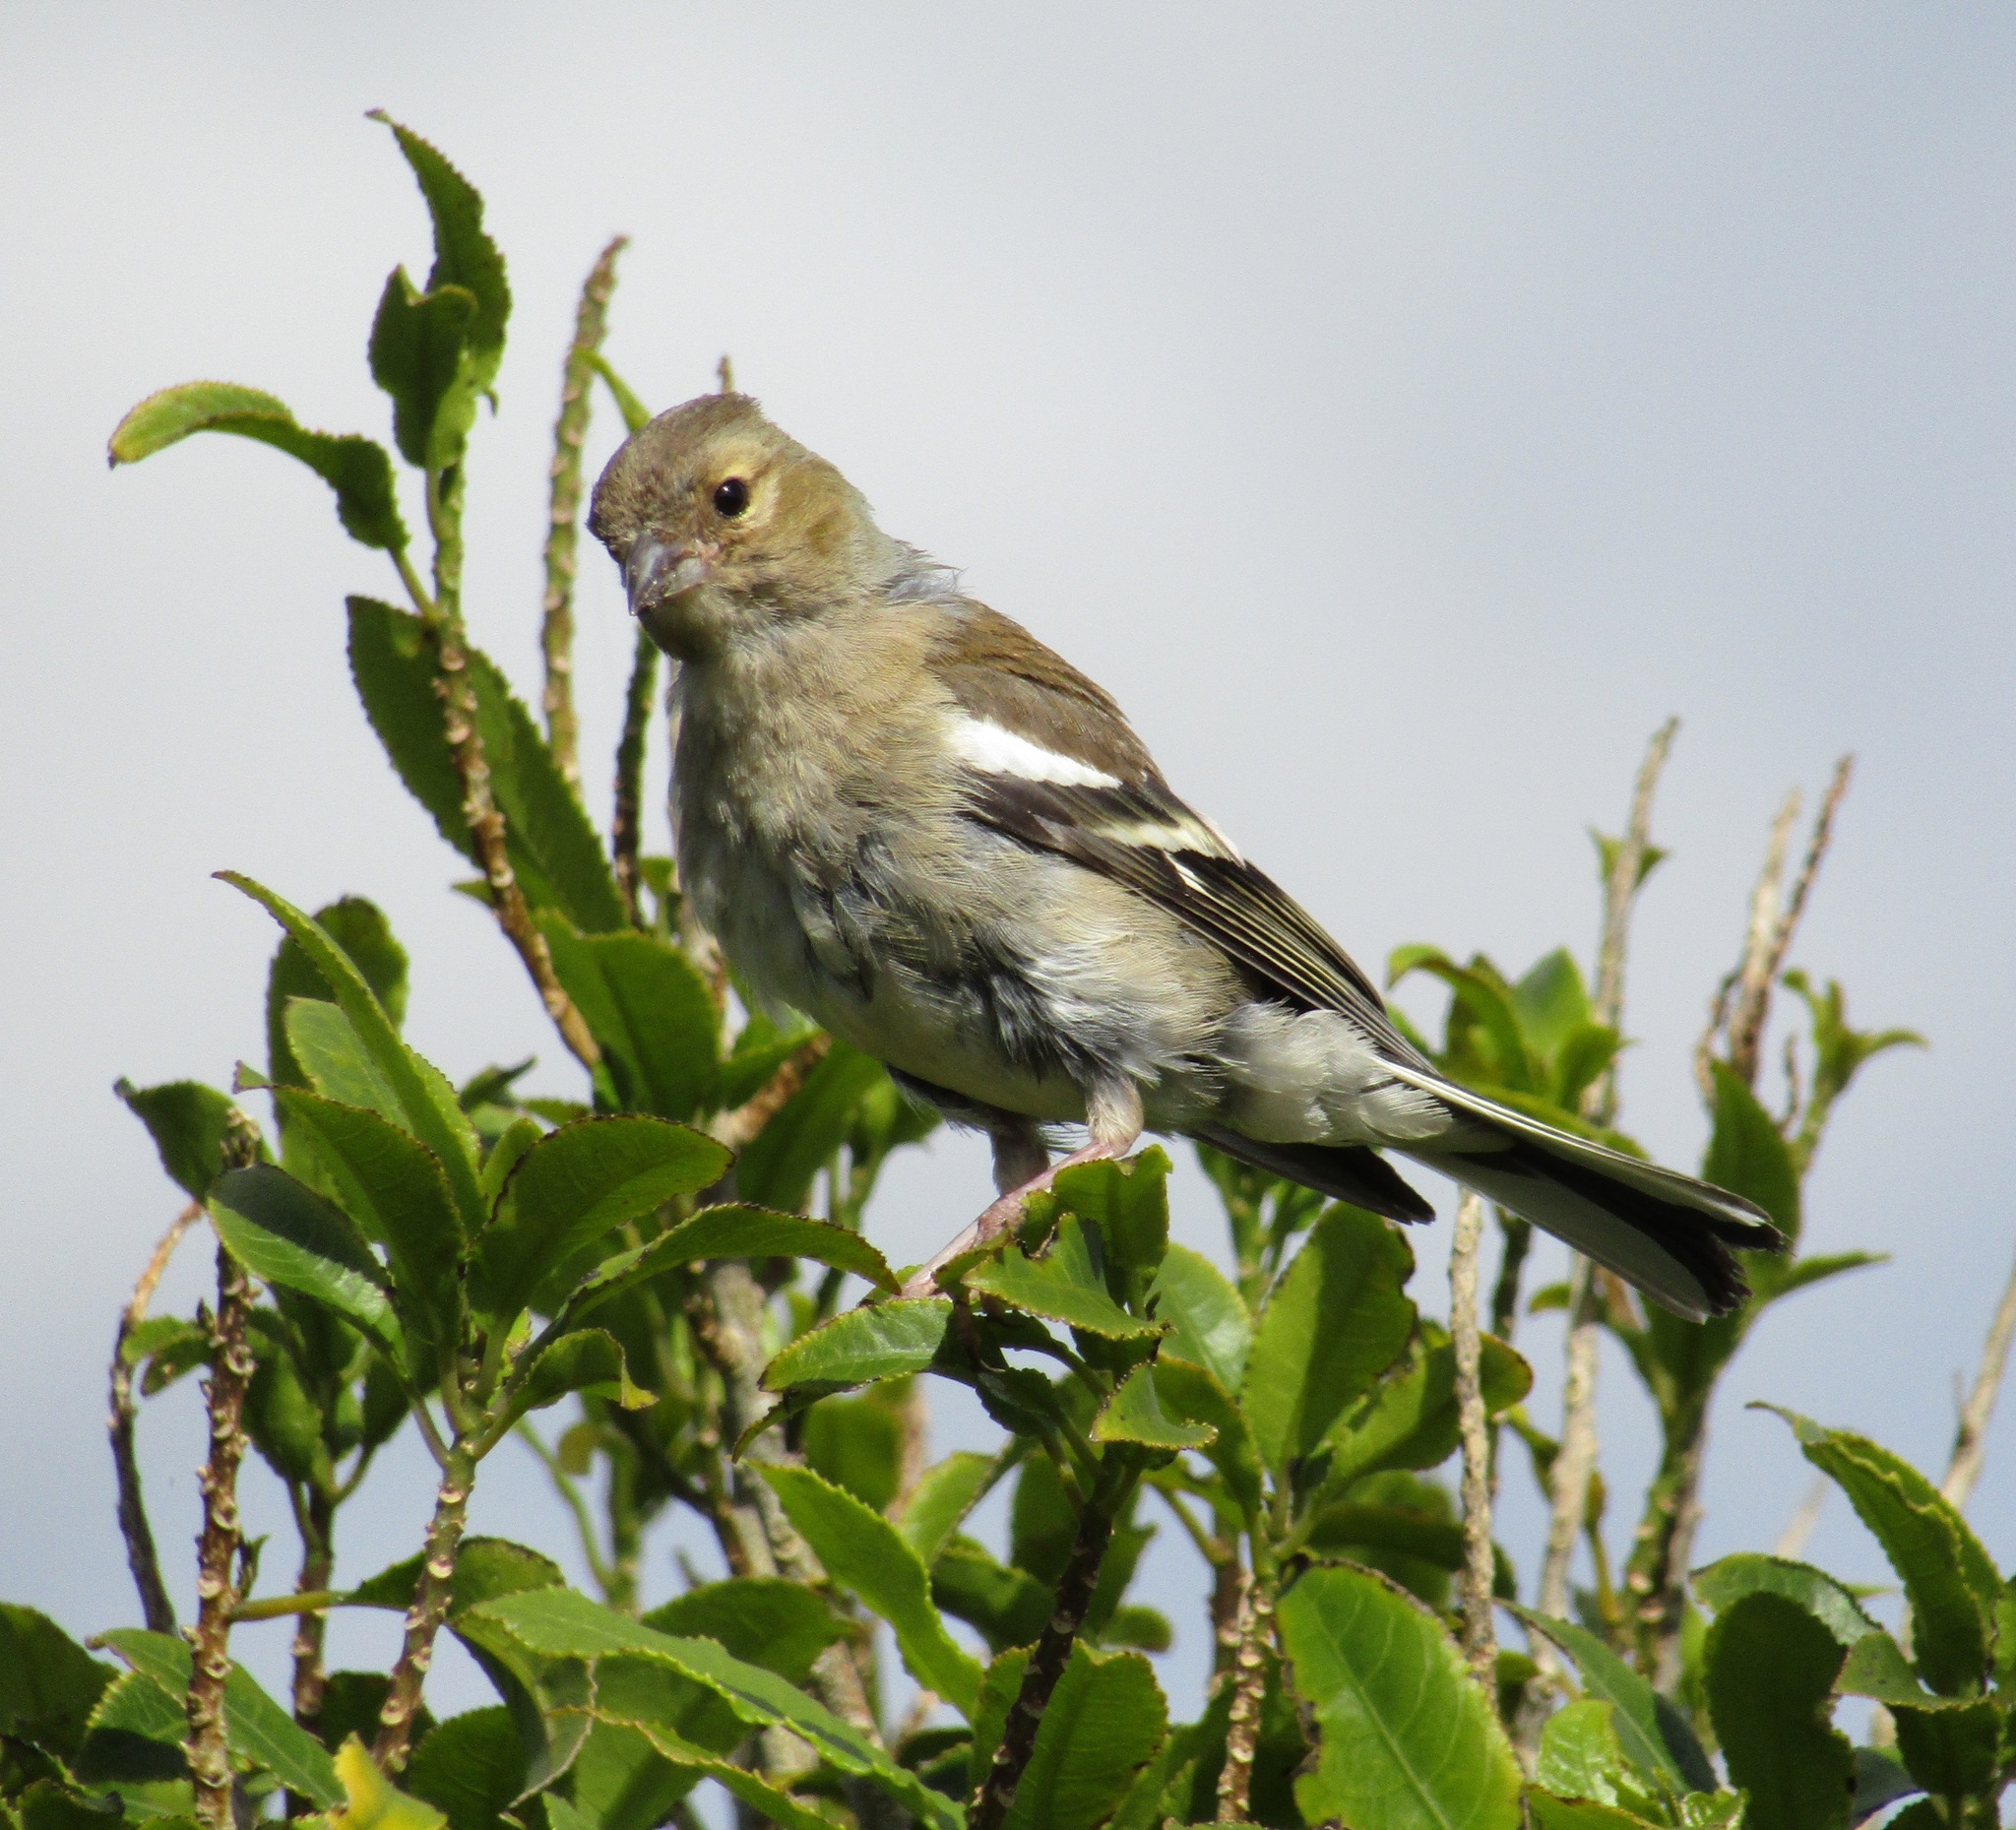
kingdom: Animalia
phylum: Chordata
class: Aves
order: Passeriformes
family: Fringillidae
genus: Fringilla
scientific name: Fringilla coelebs
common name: Common chaffinch
